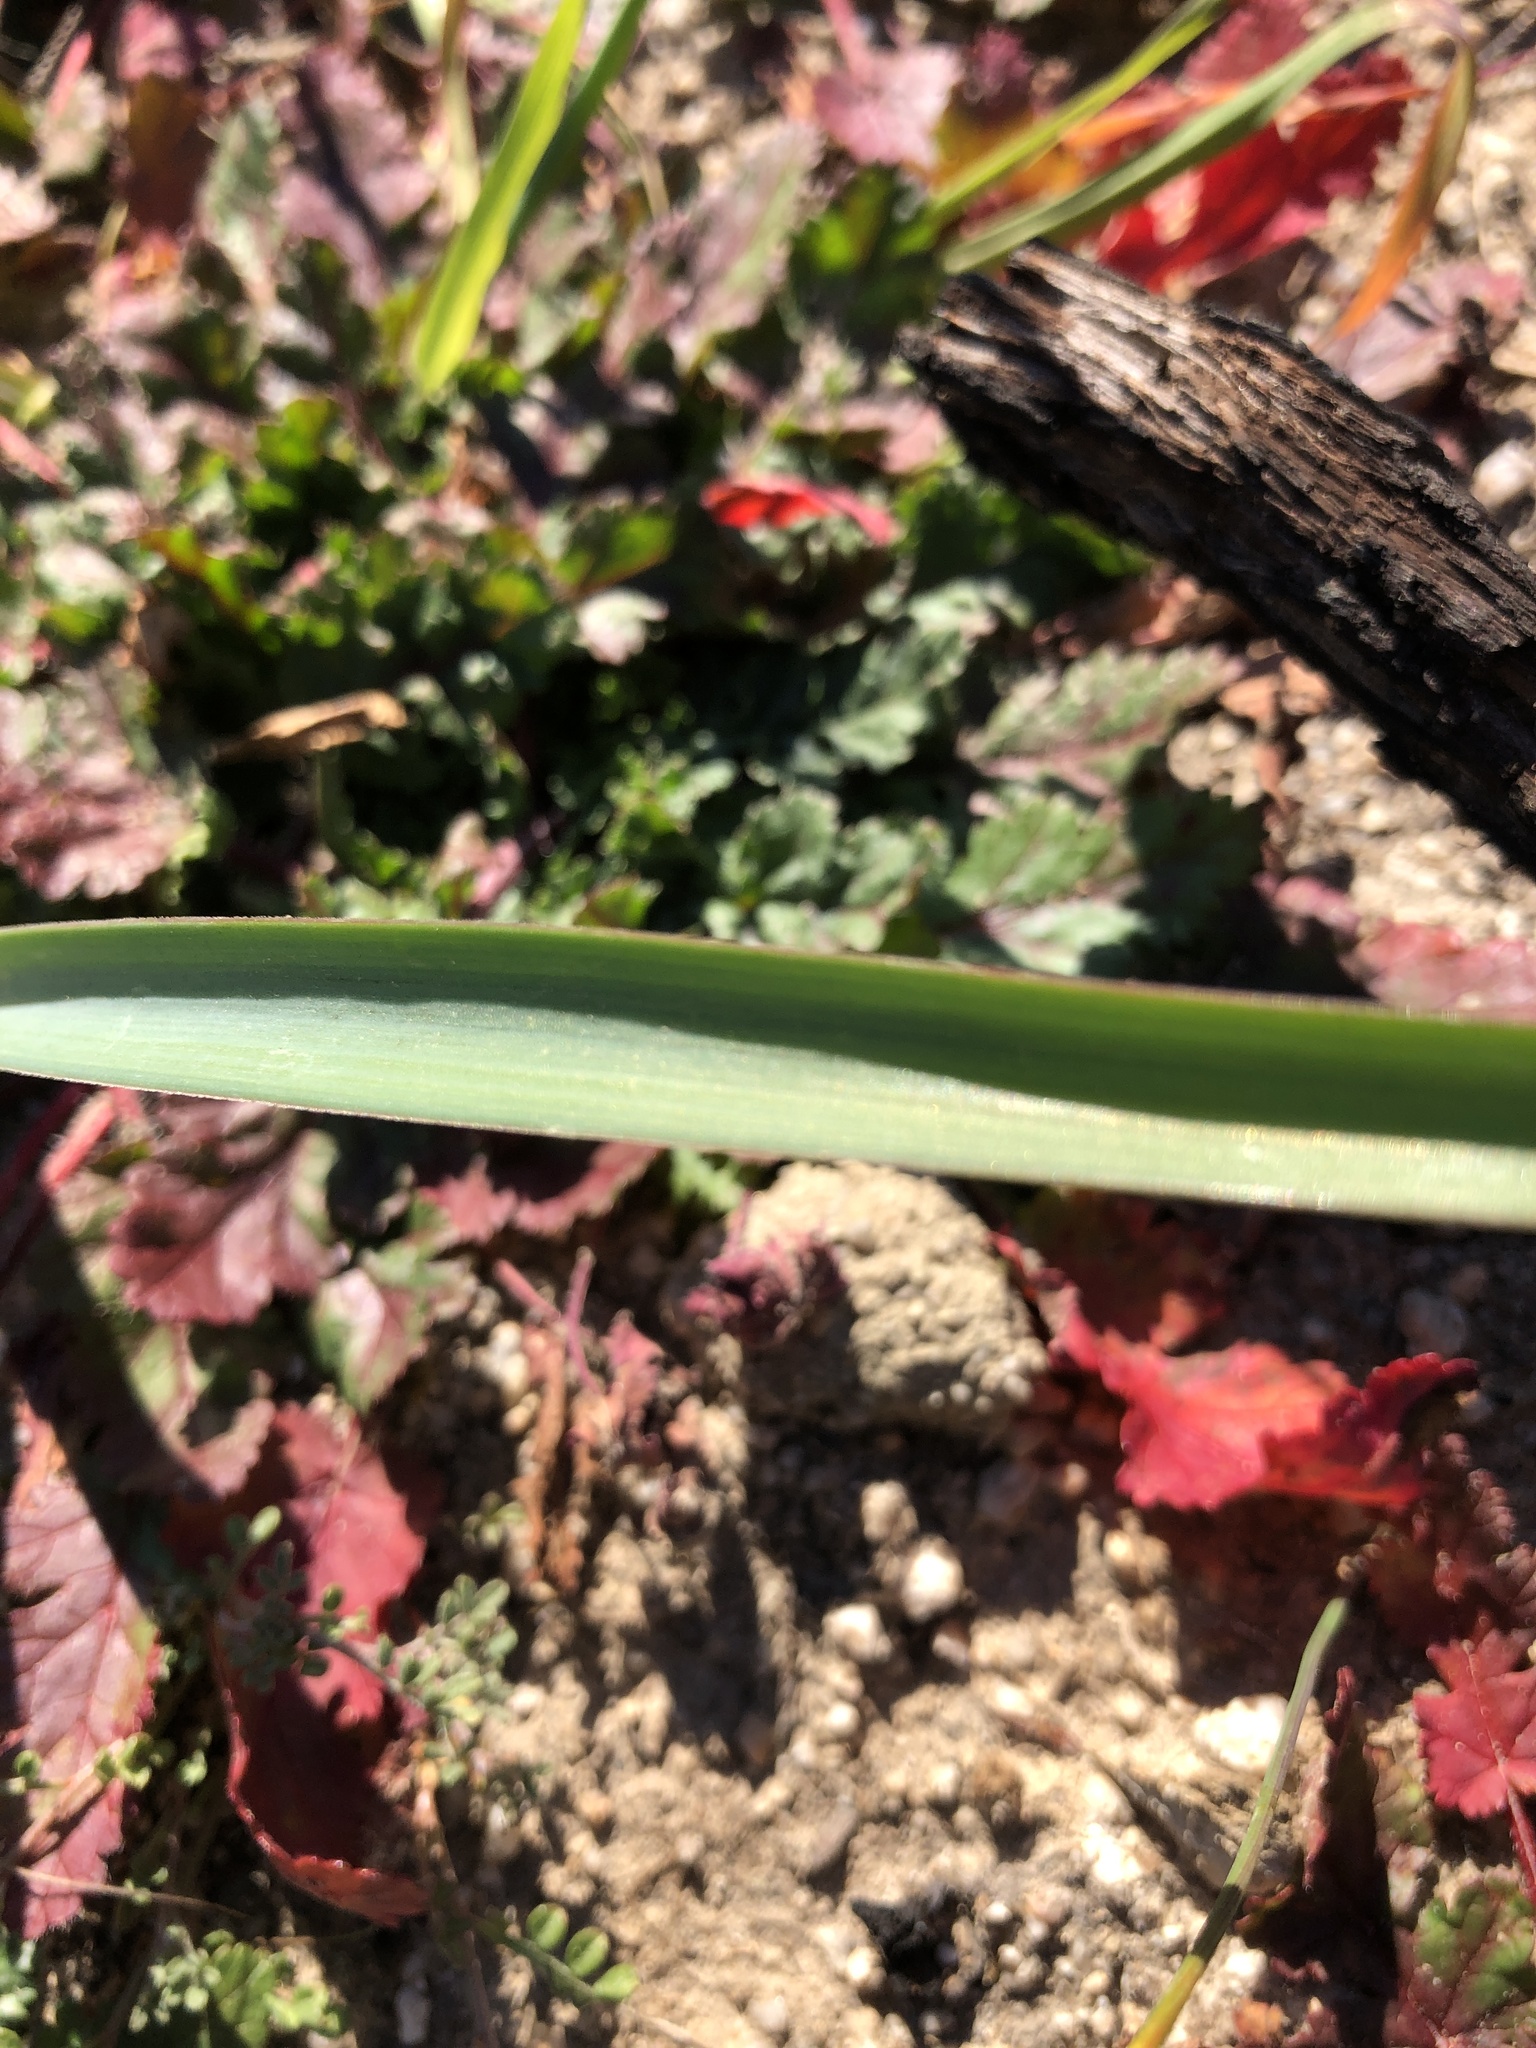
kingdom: Plantae
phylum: Tracheophyta
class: Liliopsida
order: Asparagales
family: Asparagaceae
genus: Dipterostemon
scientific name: Dipterostemon capitatus
